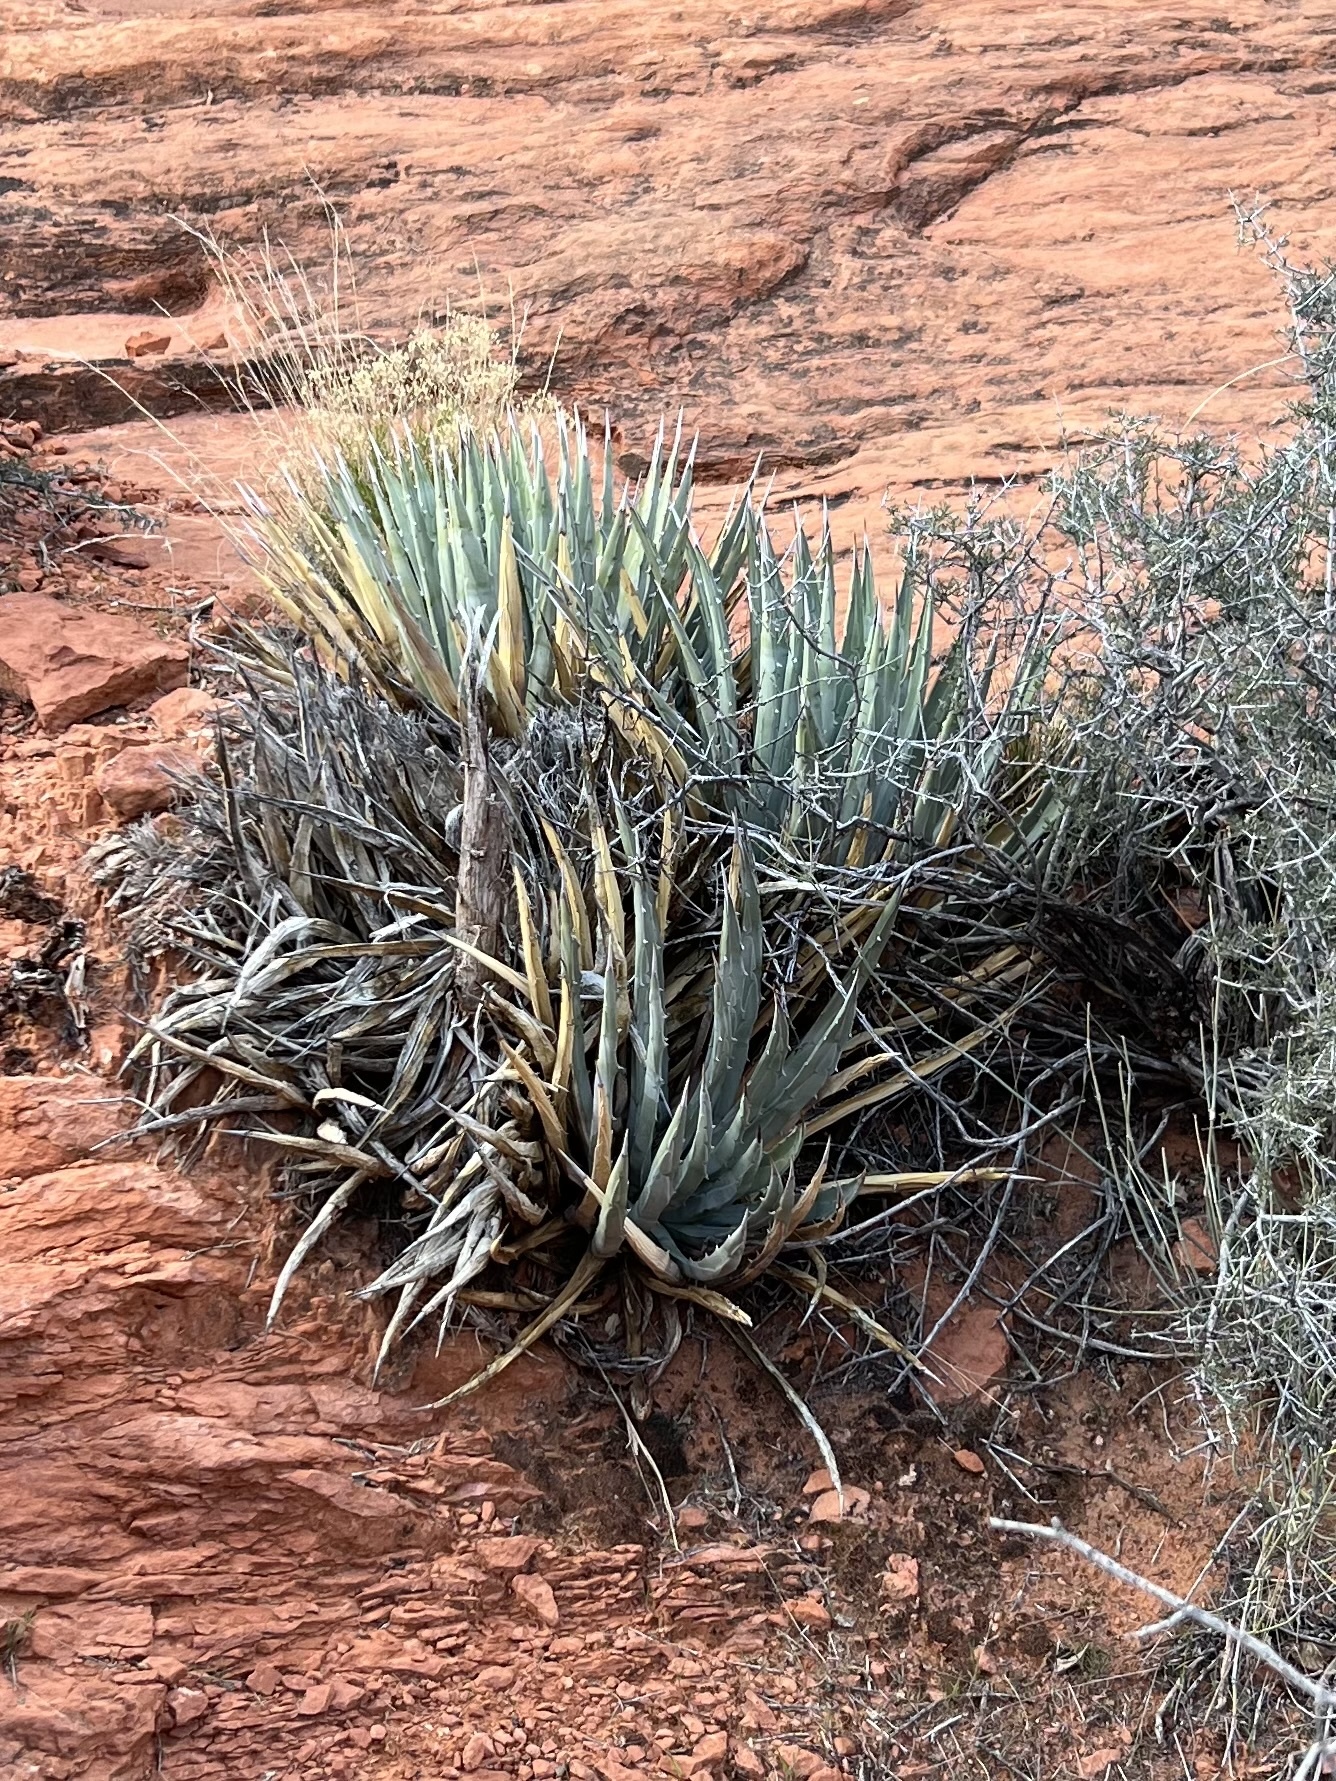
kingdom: Plantae
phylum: Tracheophyta
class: Liliopsida
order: Asparagales
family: Asparagaceae
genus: Agave
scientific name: Agave utahensis
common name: Utah agave
